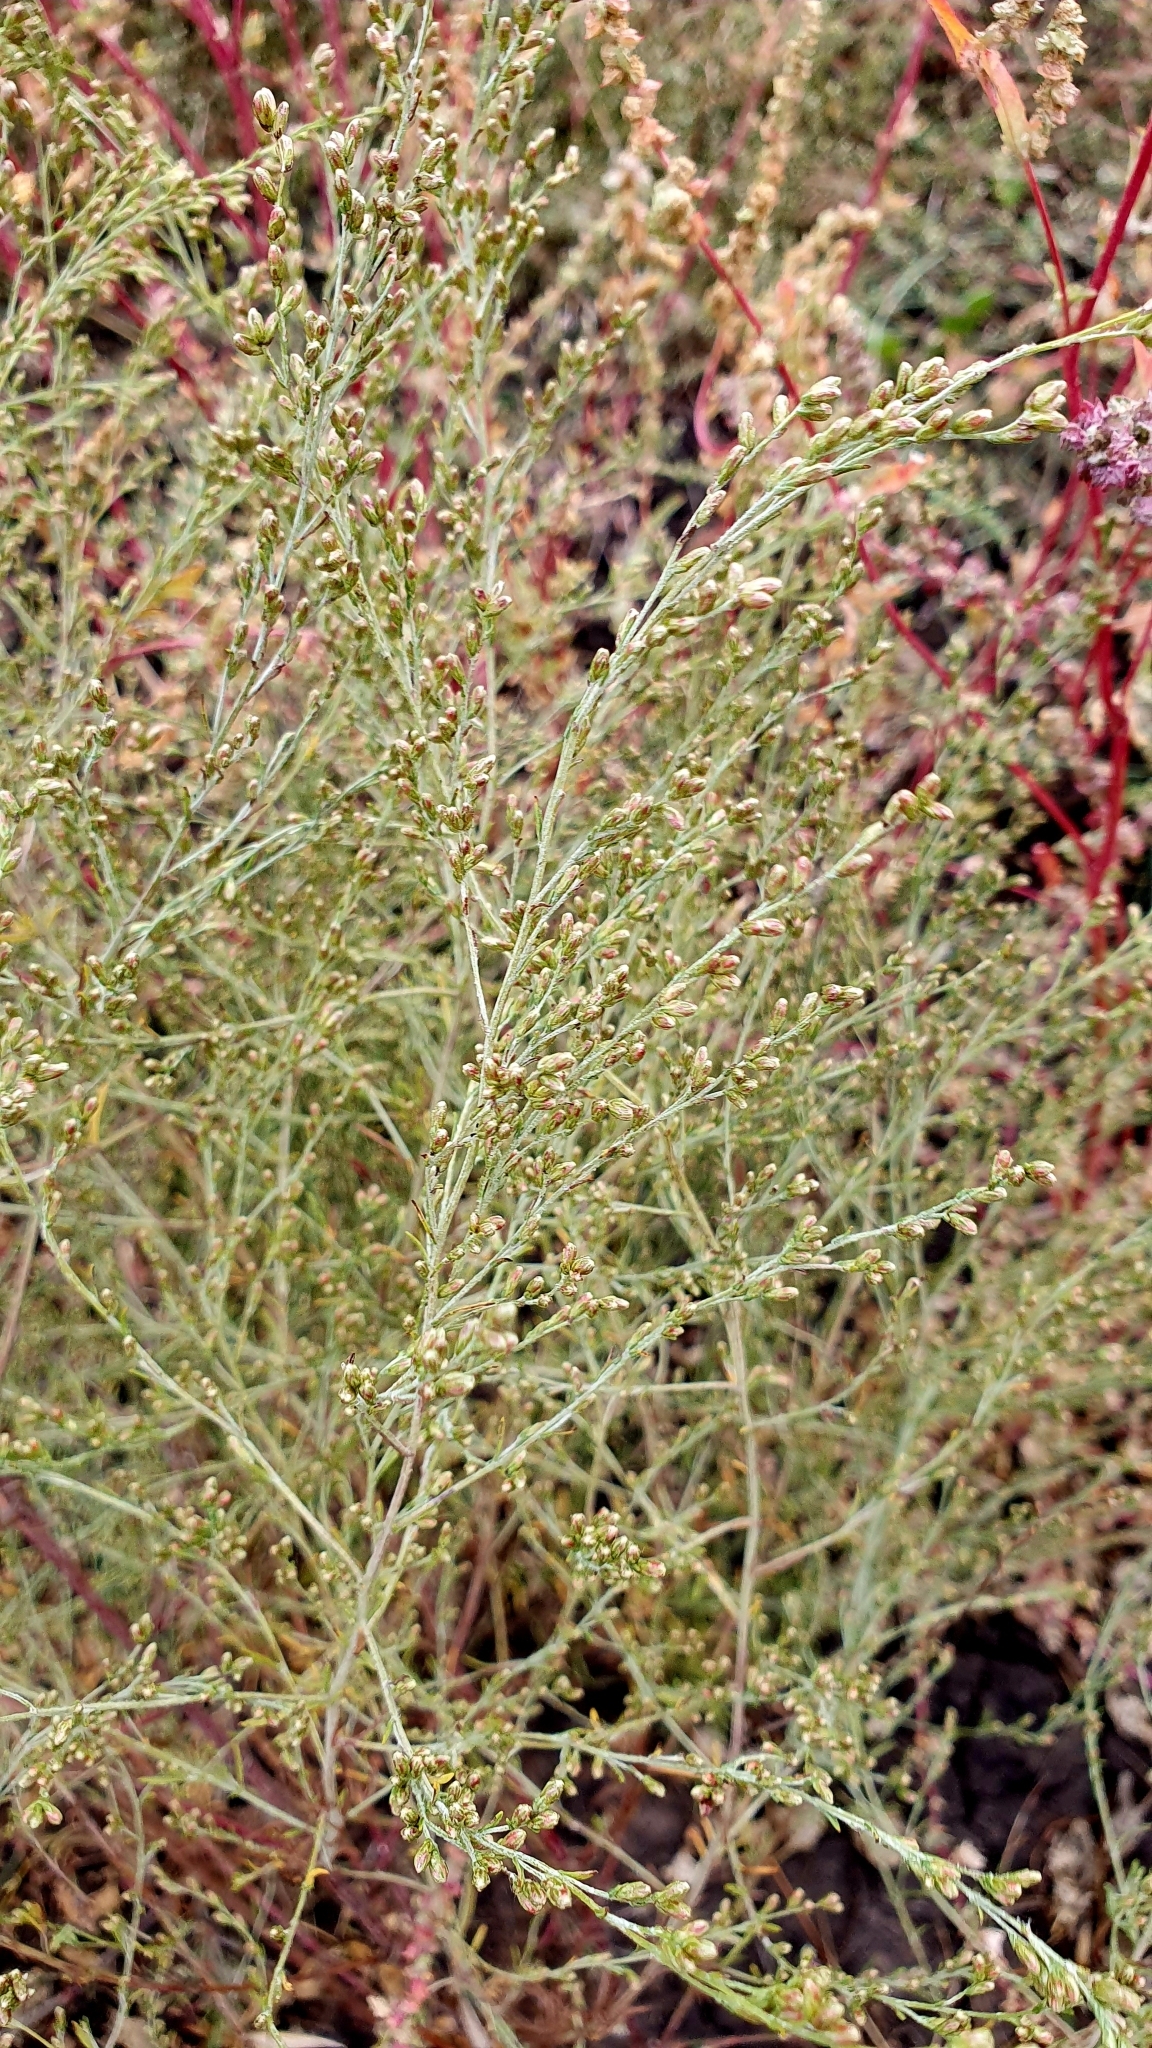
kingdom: Plantae
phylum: Tracheophyta
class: Magnoliopsida
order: Asterales
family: Asteraceae
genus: Artemisia
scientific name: Artemisia nitrosa
